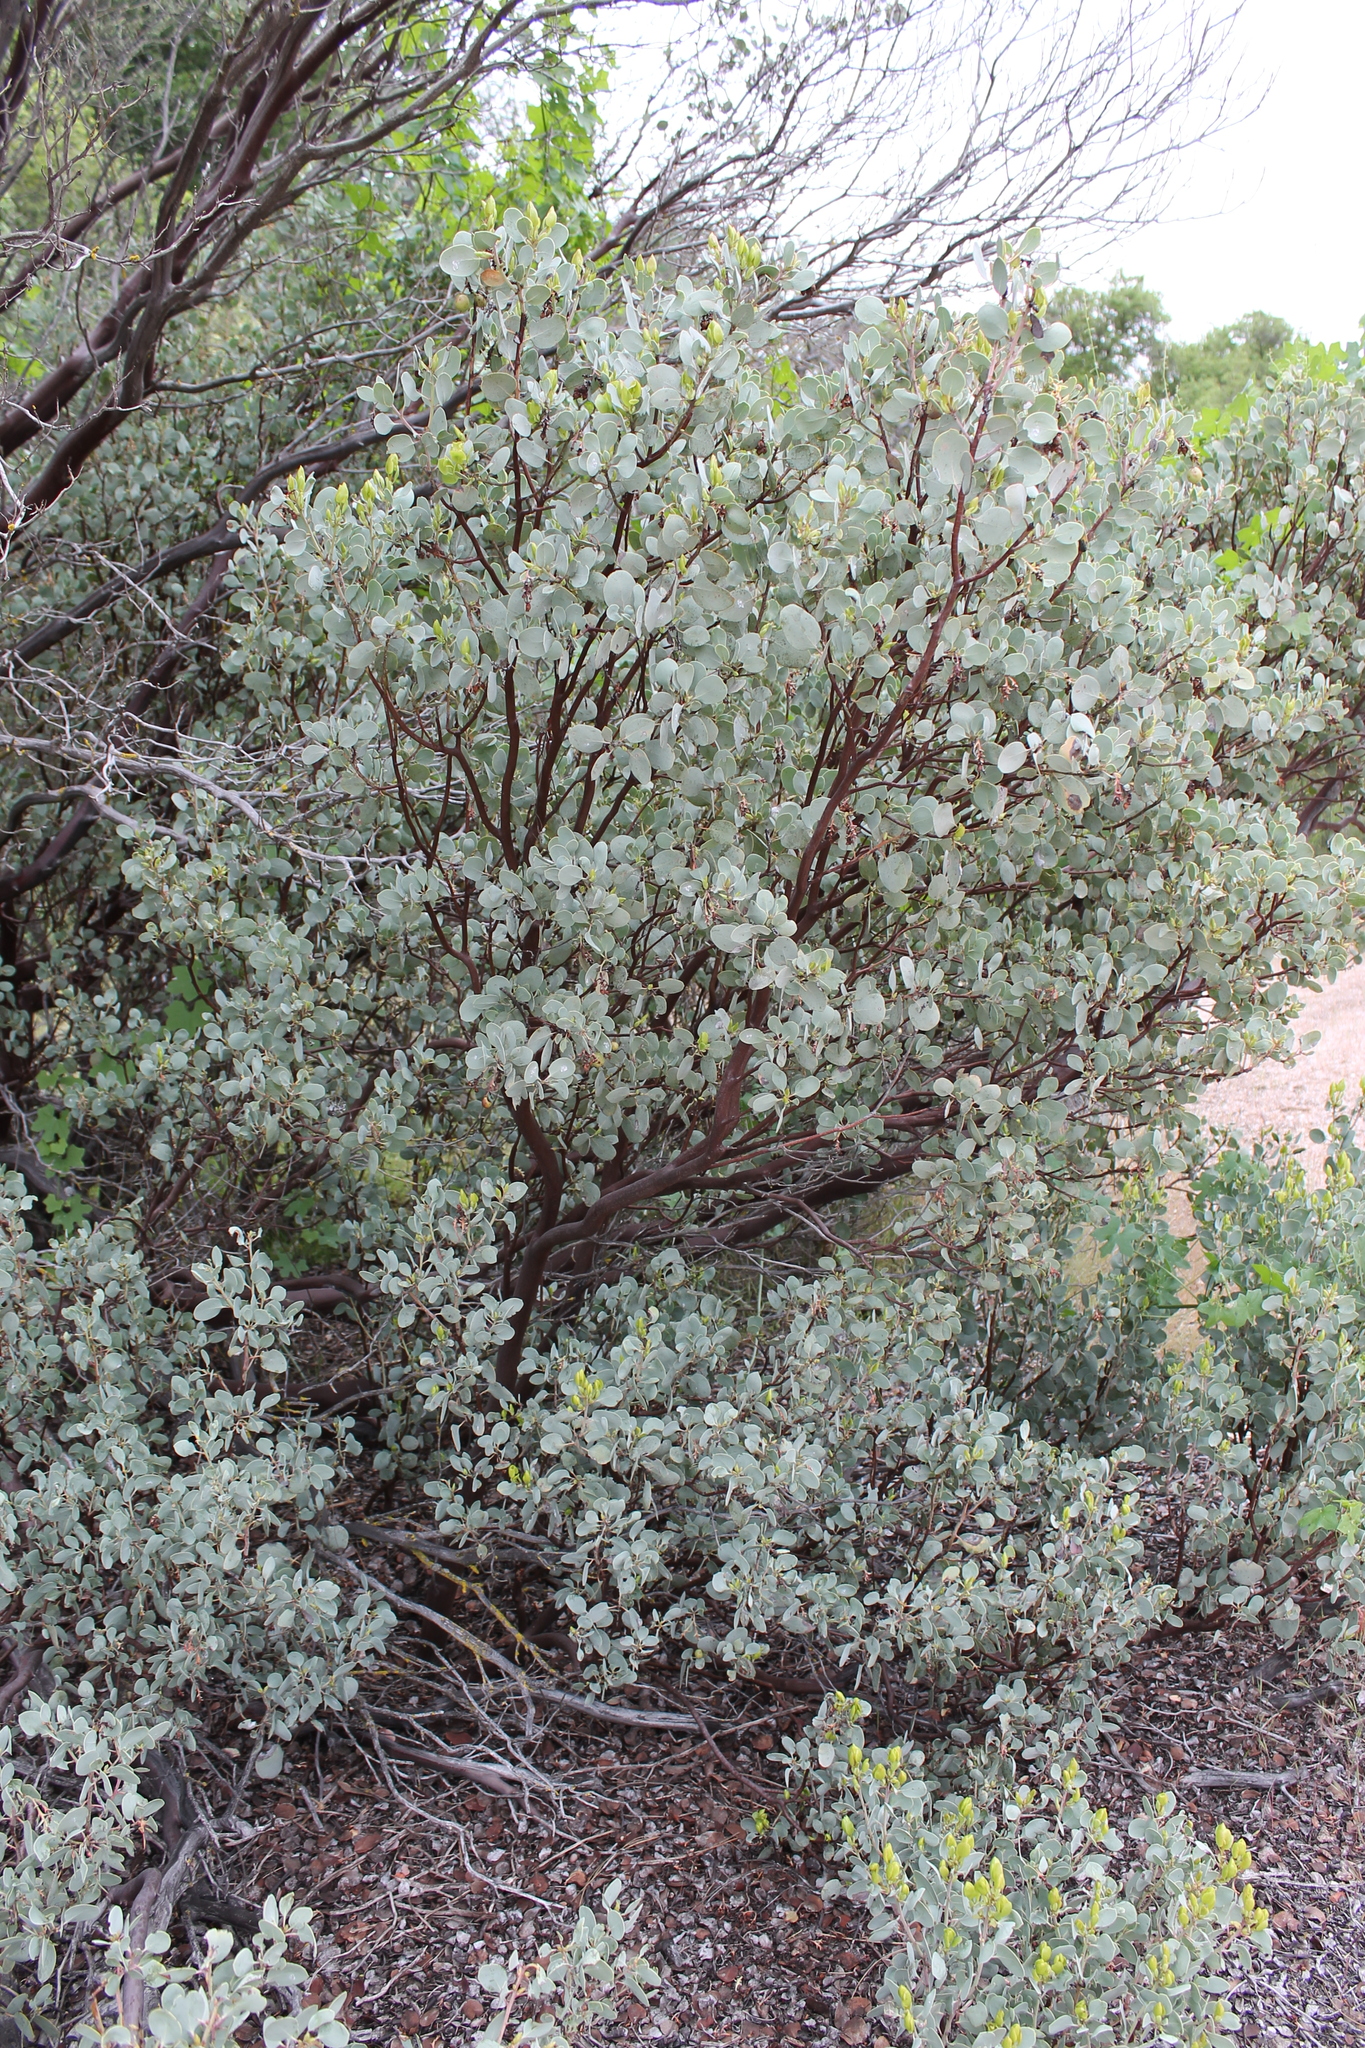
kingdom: Plantae
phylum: Tracheophyta
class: Magnoliopsida
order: Ericales
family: Ericaceae
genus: Arctostaphylos
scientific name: Arctostaphylos glauca
